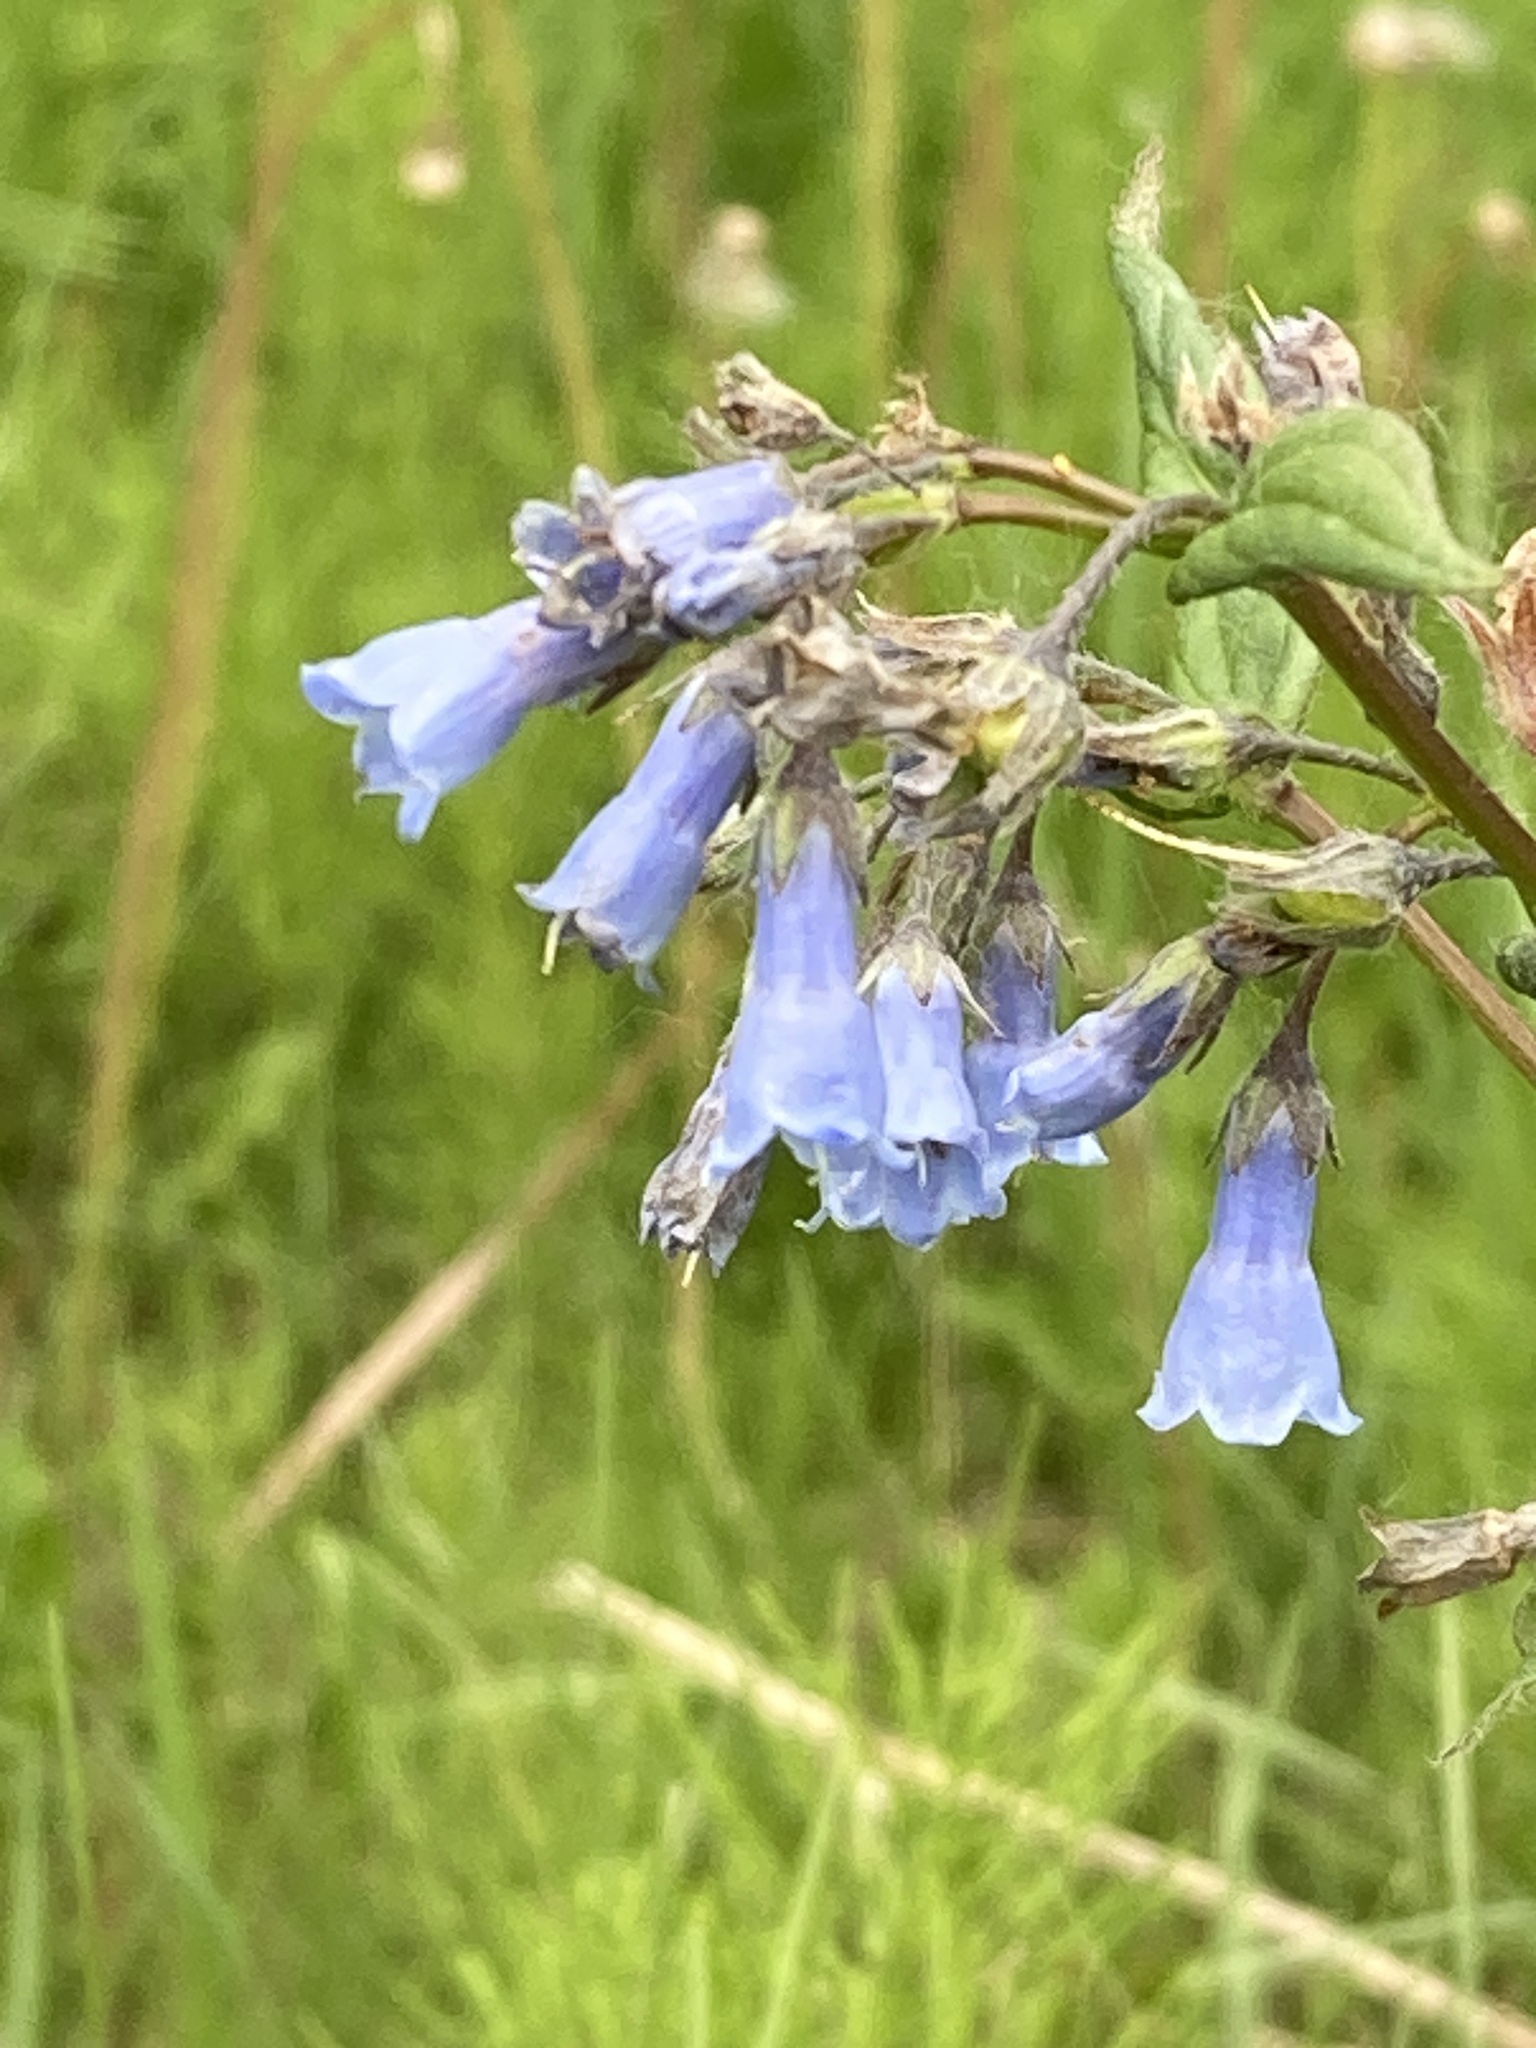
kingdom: Plantae
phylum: Tracheophyta
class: Magnoliopsida
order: Boraginales
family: Boraginaceae
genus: Mertensia
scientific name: Mertensia paniculata
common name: Panicled bluebells
